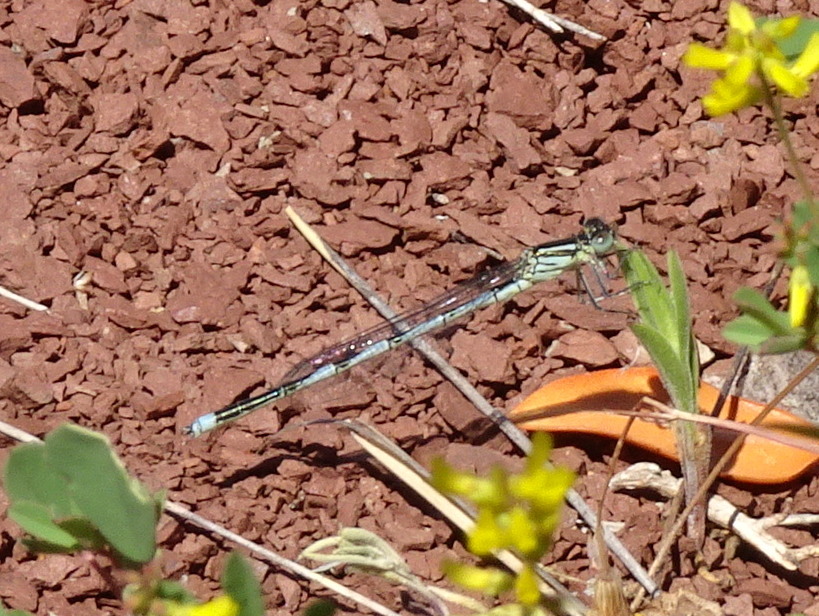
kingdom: Animalia
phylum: Arthropoda
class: Insecta
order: Odonata
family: Coenagrionidae
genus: Erythromma
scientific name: Erythromma lindenii
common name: Blue-eye
